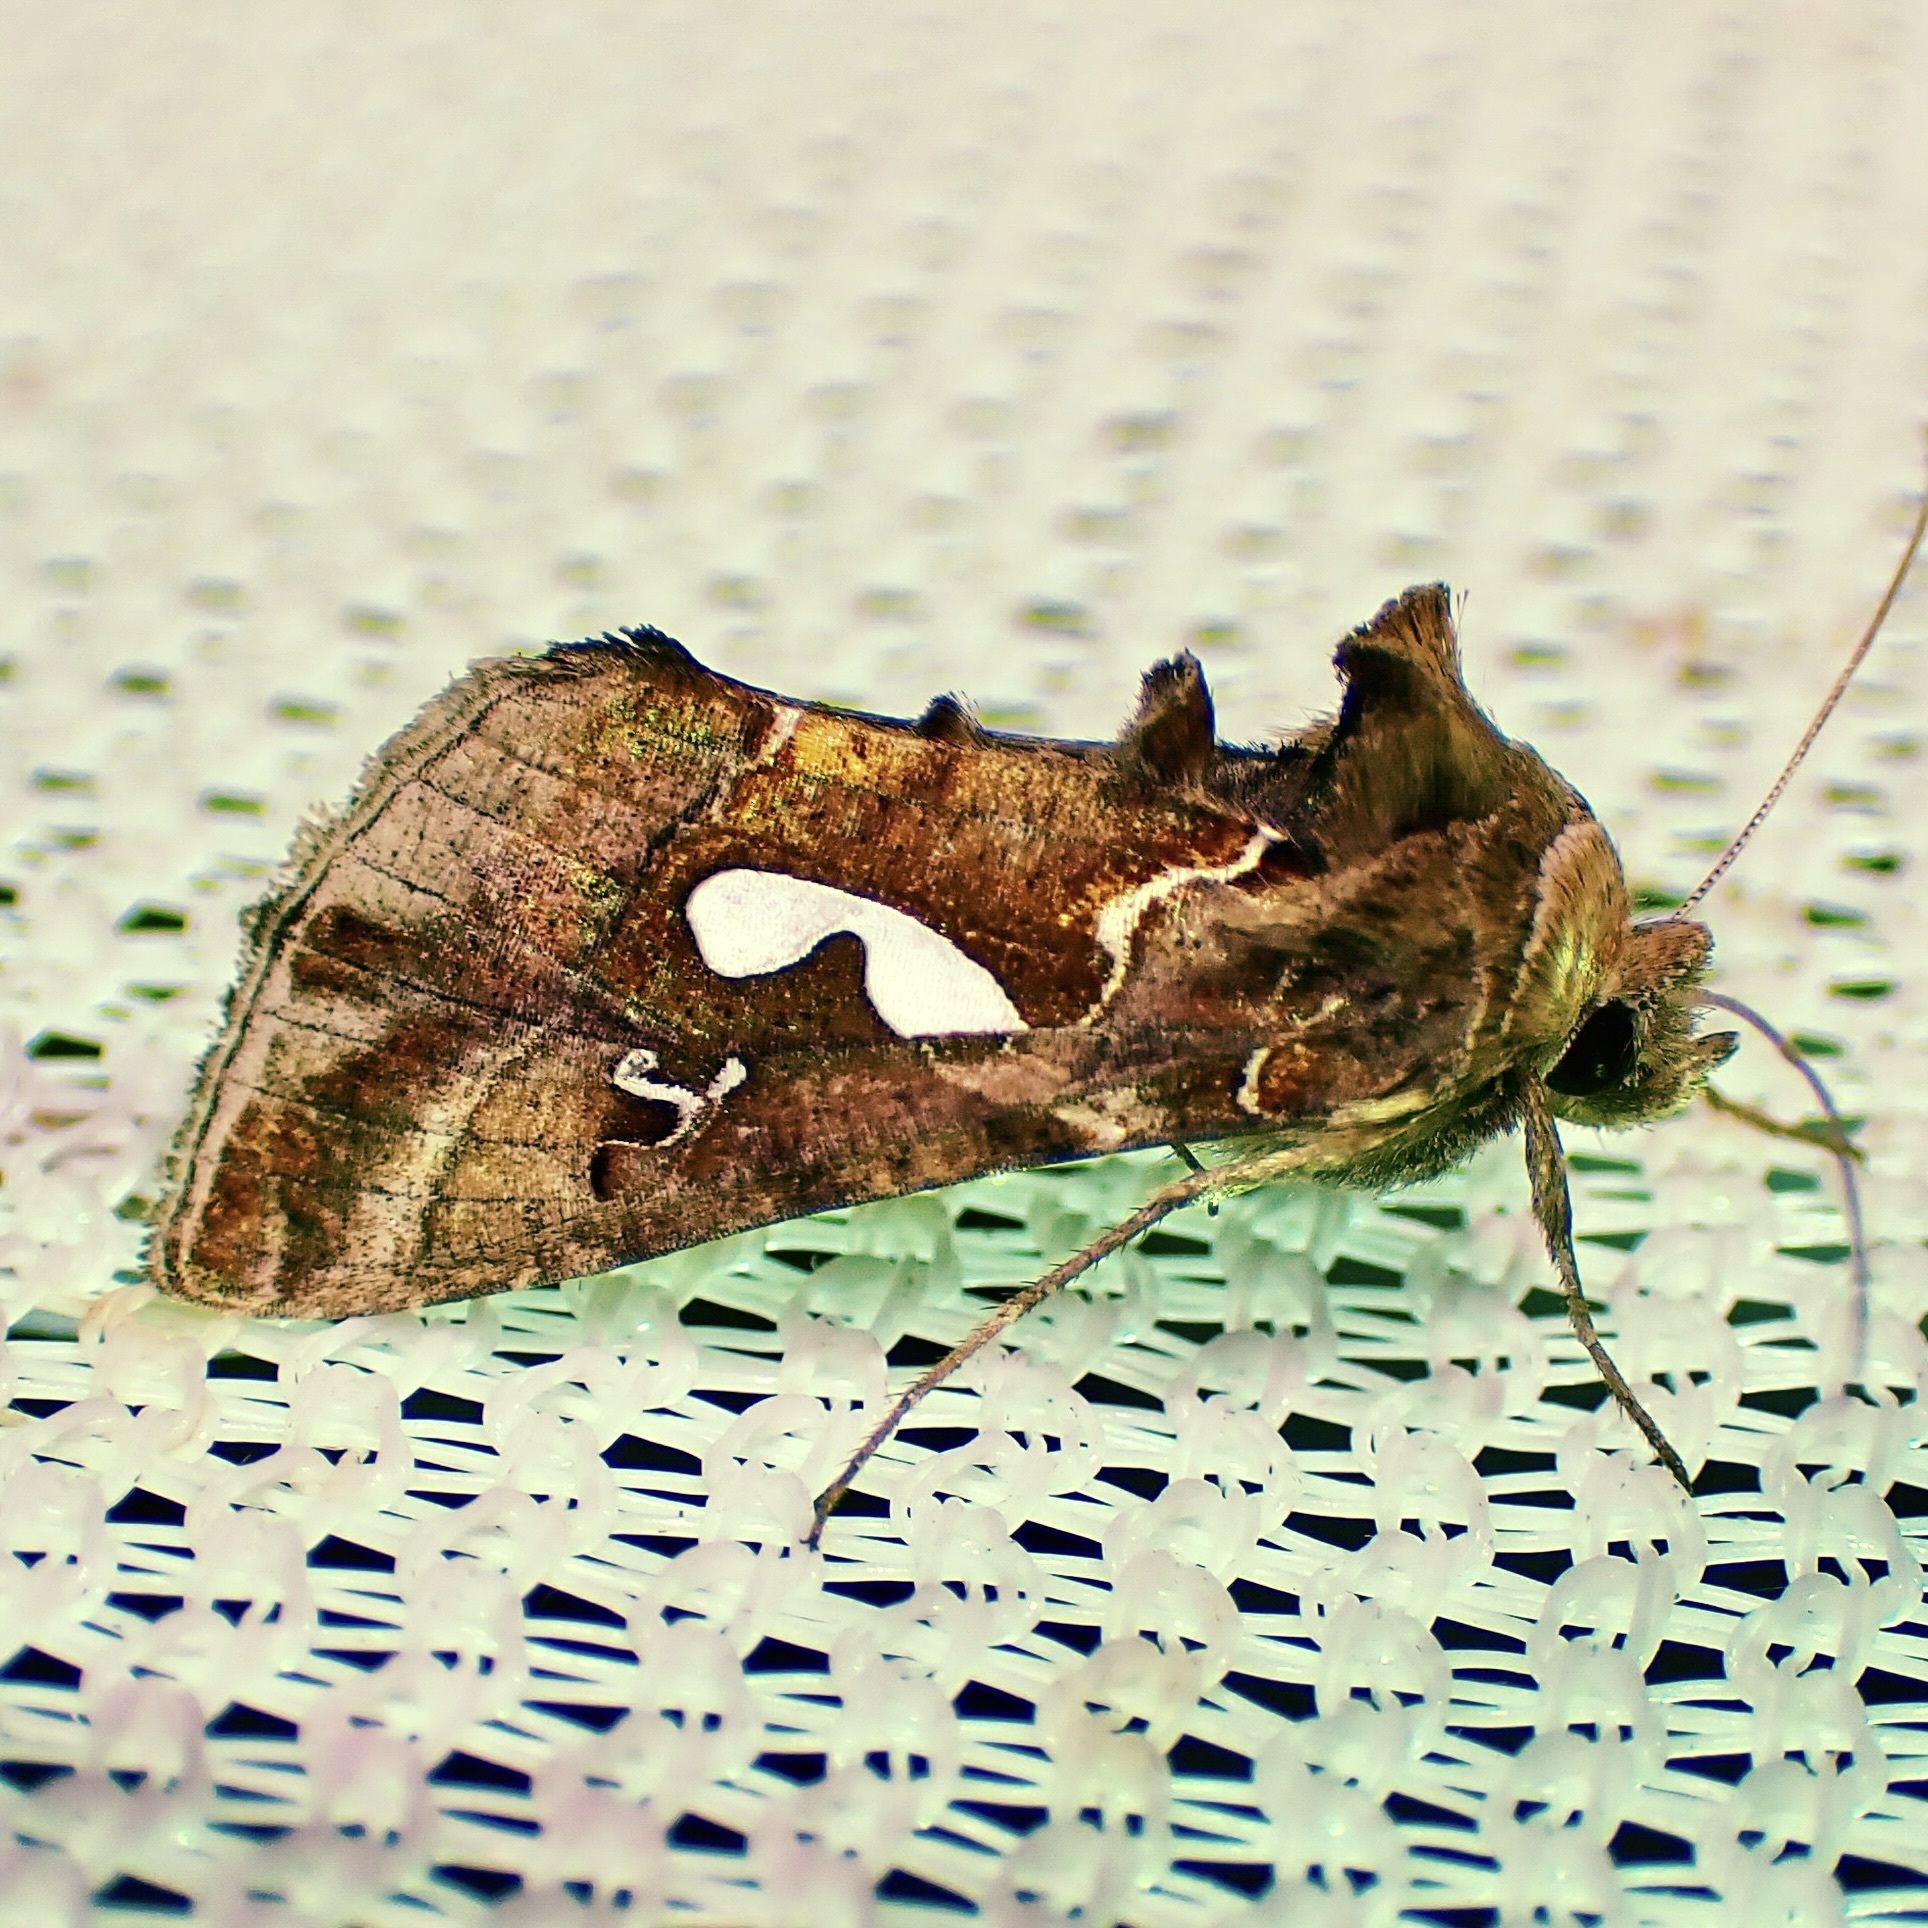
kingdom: Animalia
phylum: Arthropoda
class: Insecta
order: Lepidoptera
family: Noctuidae
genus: Megalographa
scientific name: Megalographa biloba
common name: Cutworm
